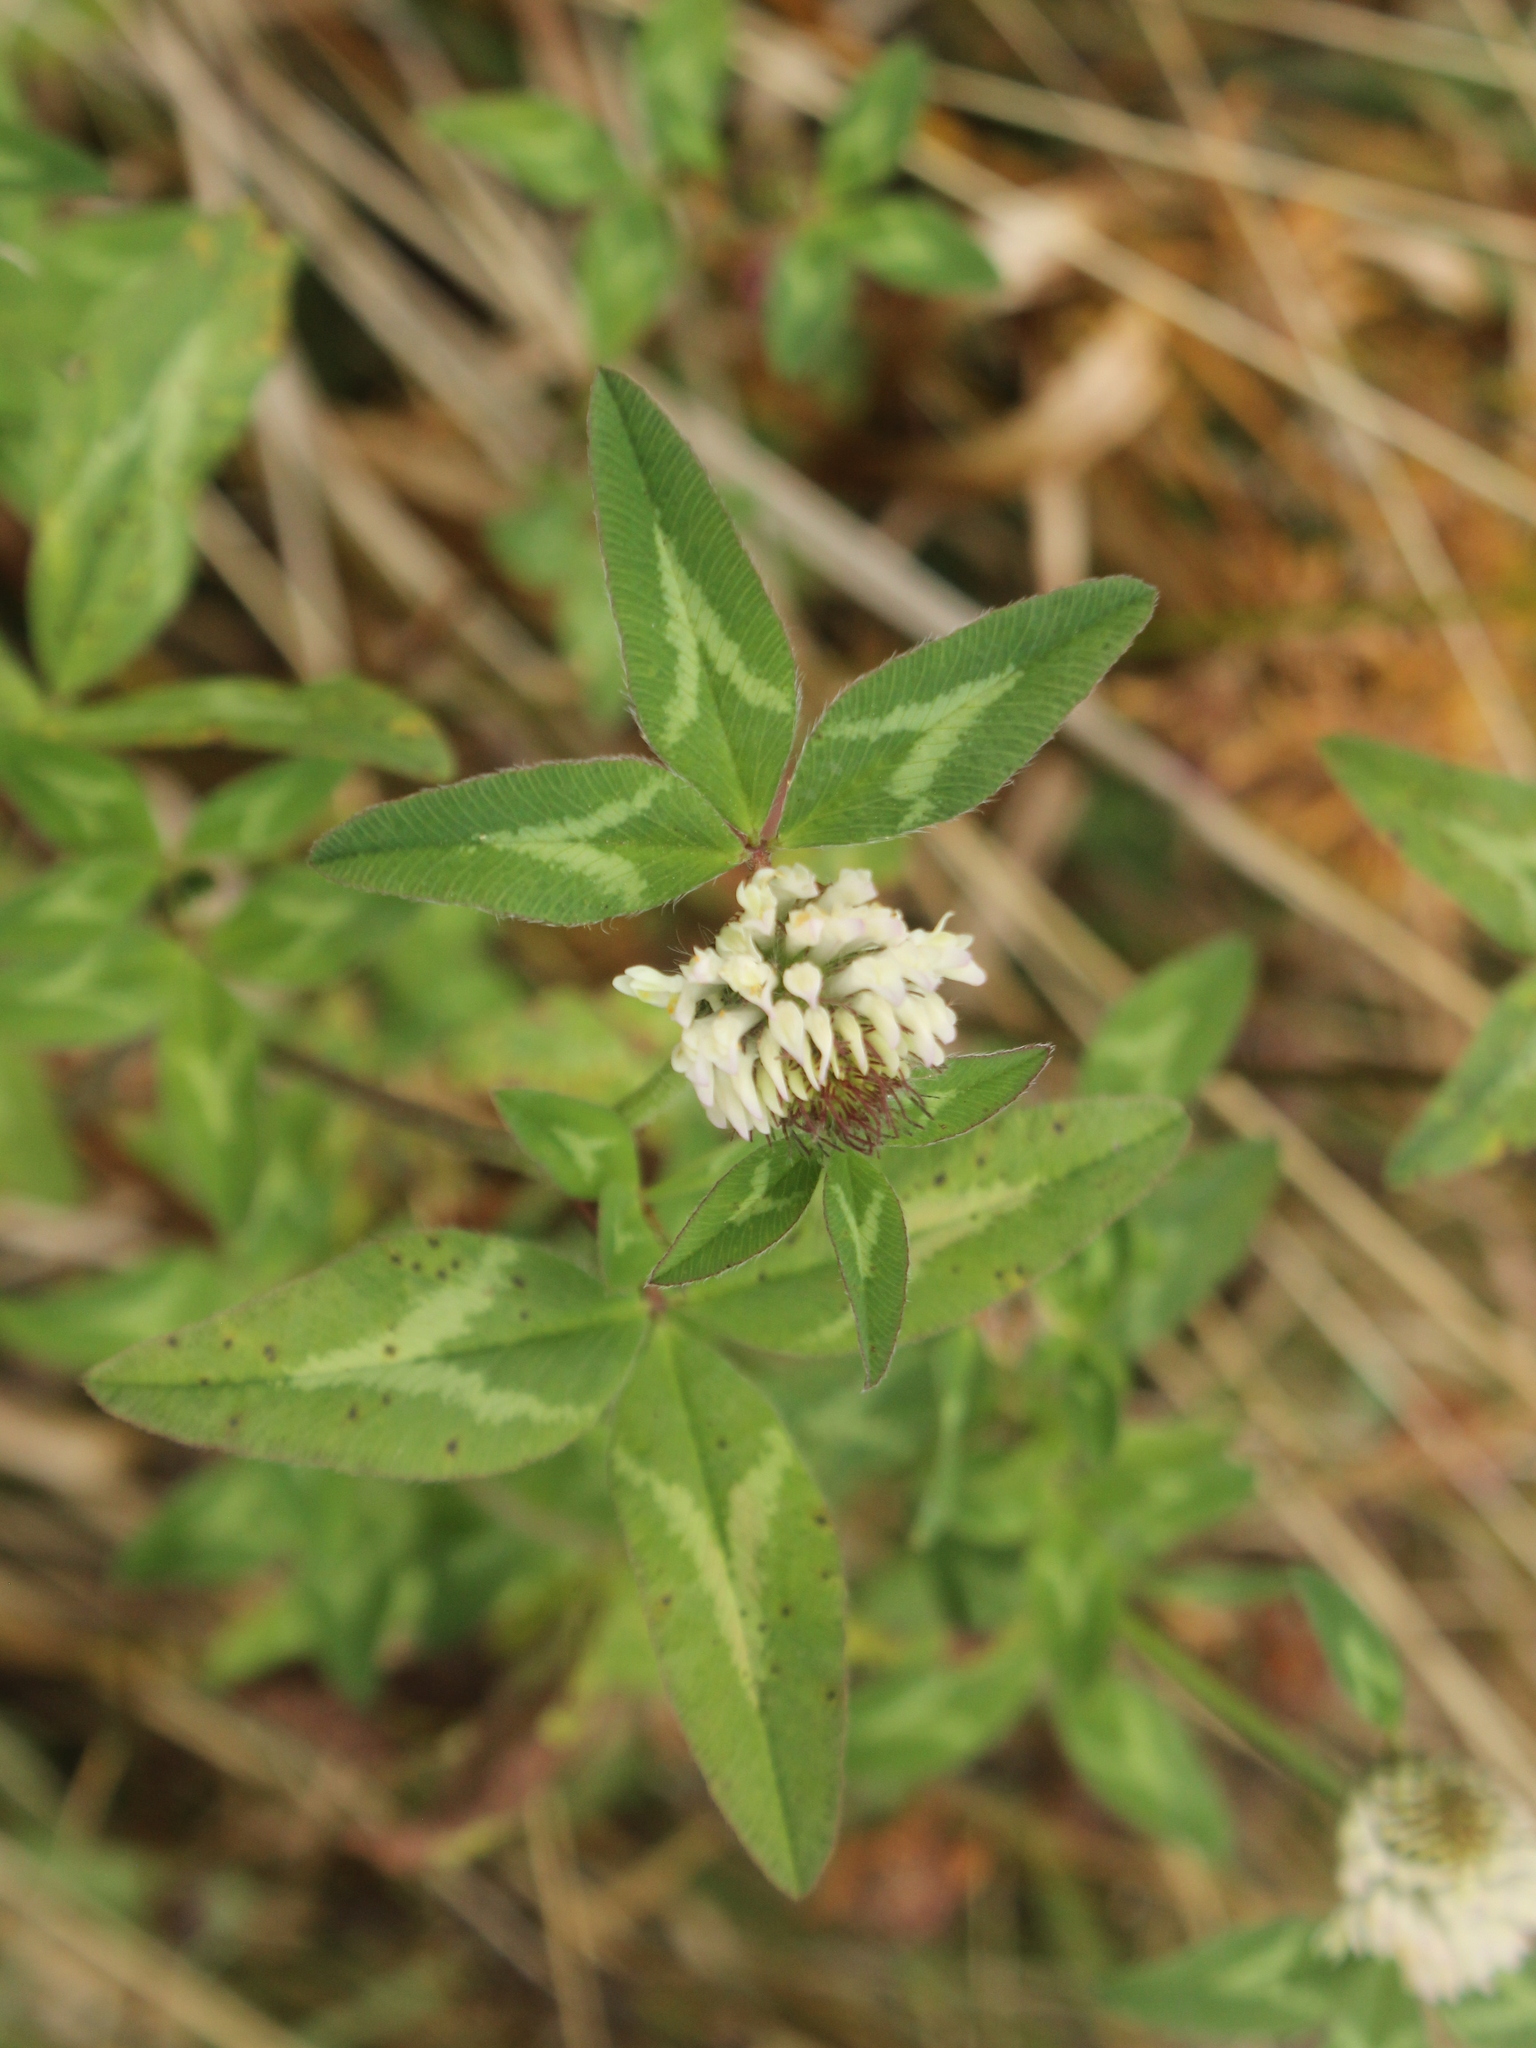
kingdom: Plantae
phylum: Tracheophyta
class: Magnoliopsida
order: Fabales
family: Fabaceae
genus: Trifolium
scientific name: Trifolium pratense
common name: Red clover
